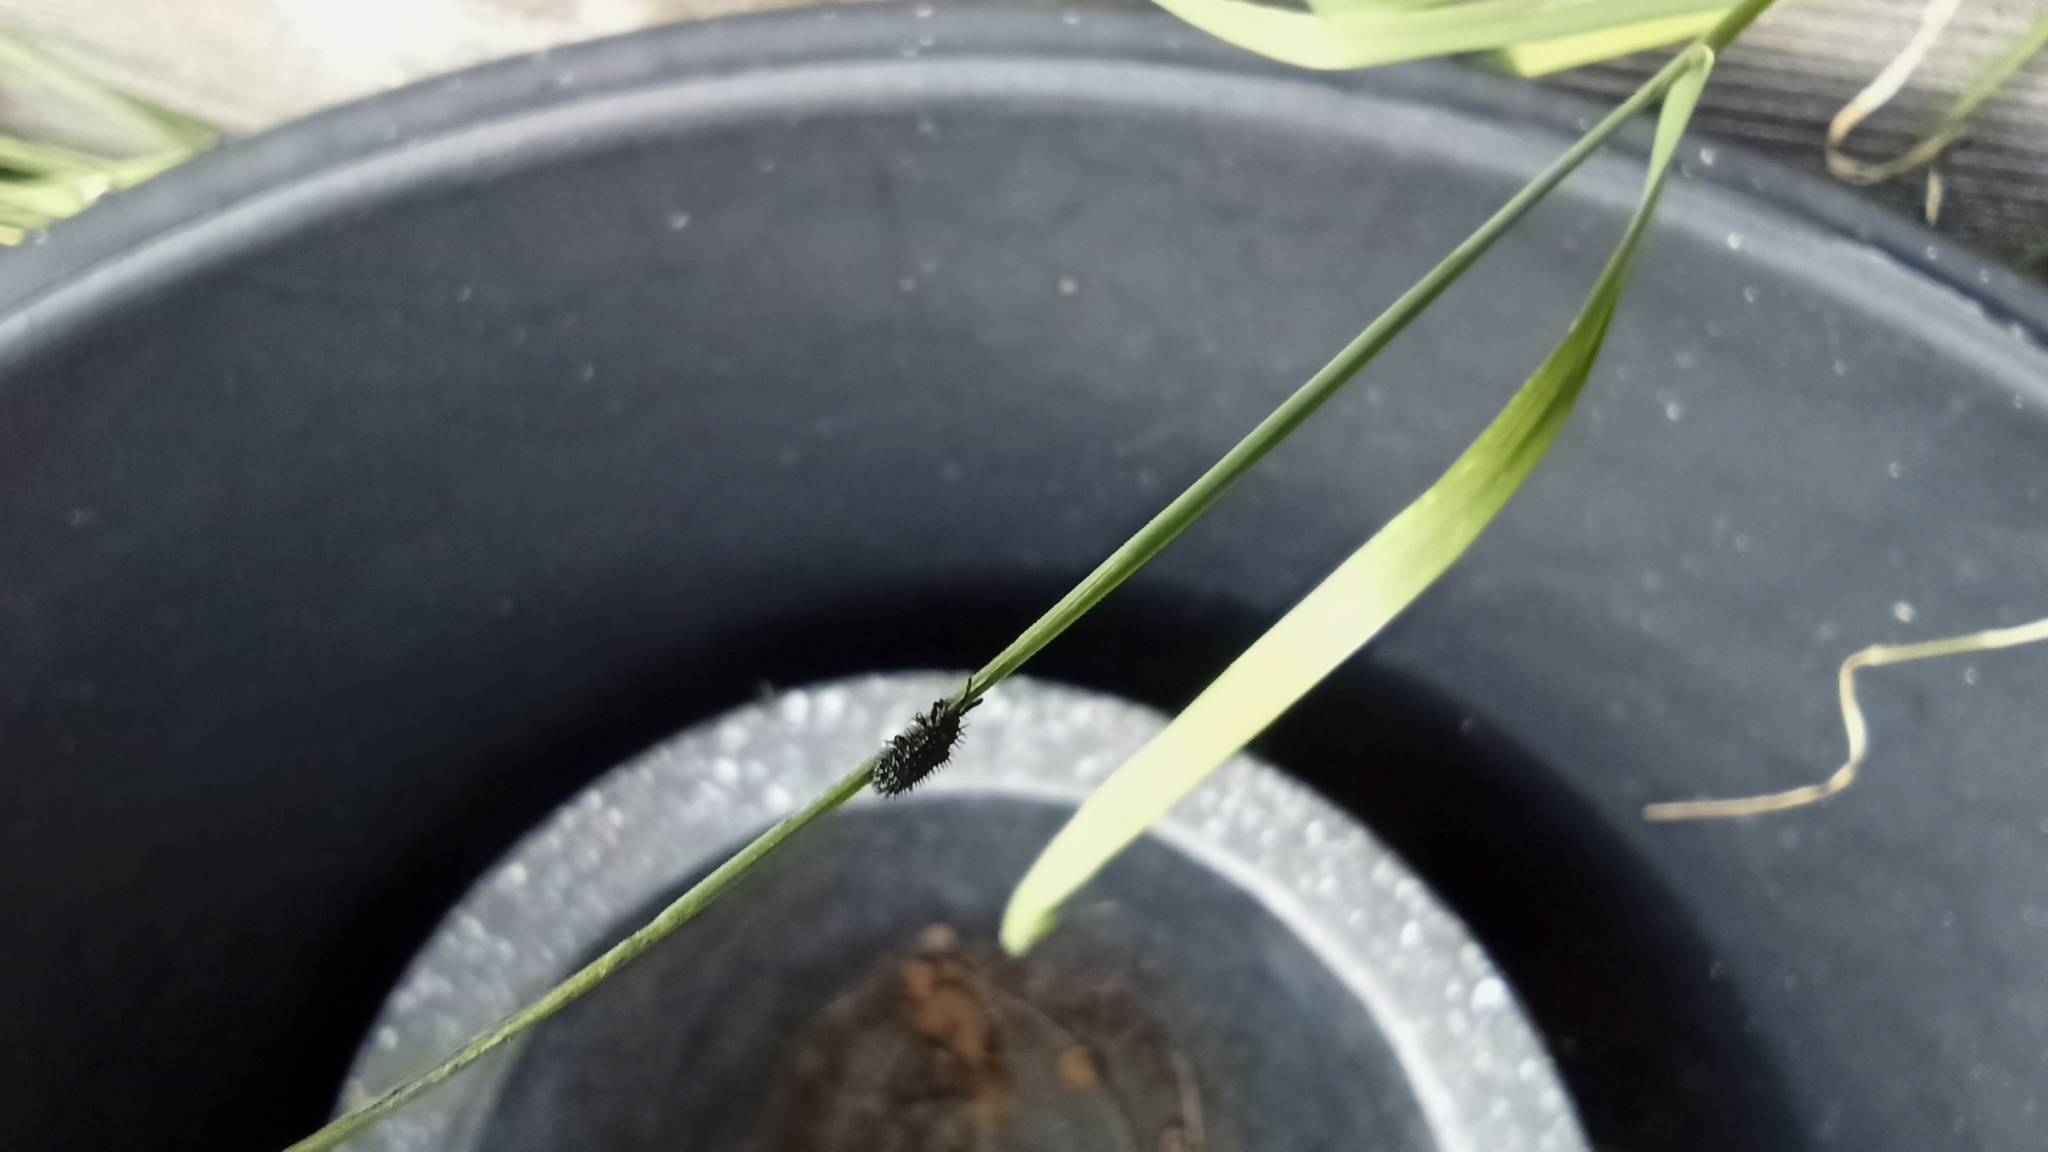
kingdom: Animalia
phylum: Arthropoda
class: Insecta
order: Coleoptera
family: Chrysomelidae
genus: Hispa
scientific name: Hispa atra
